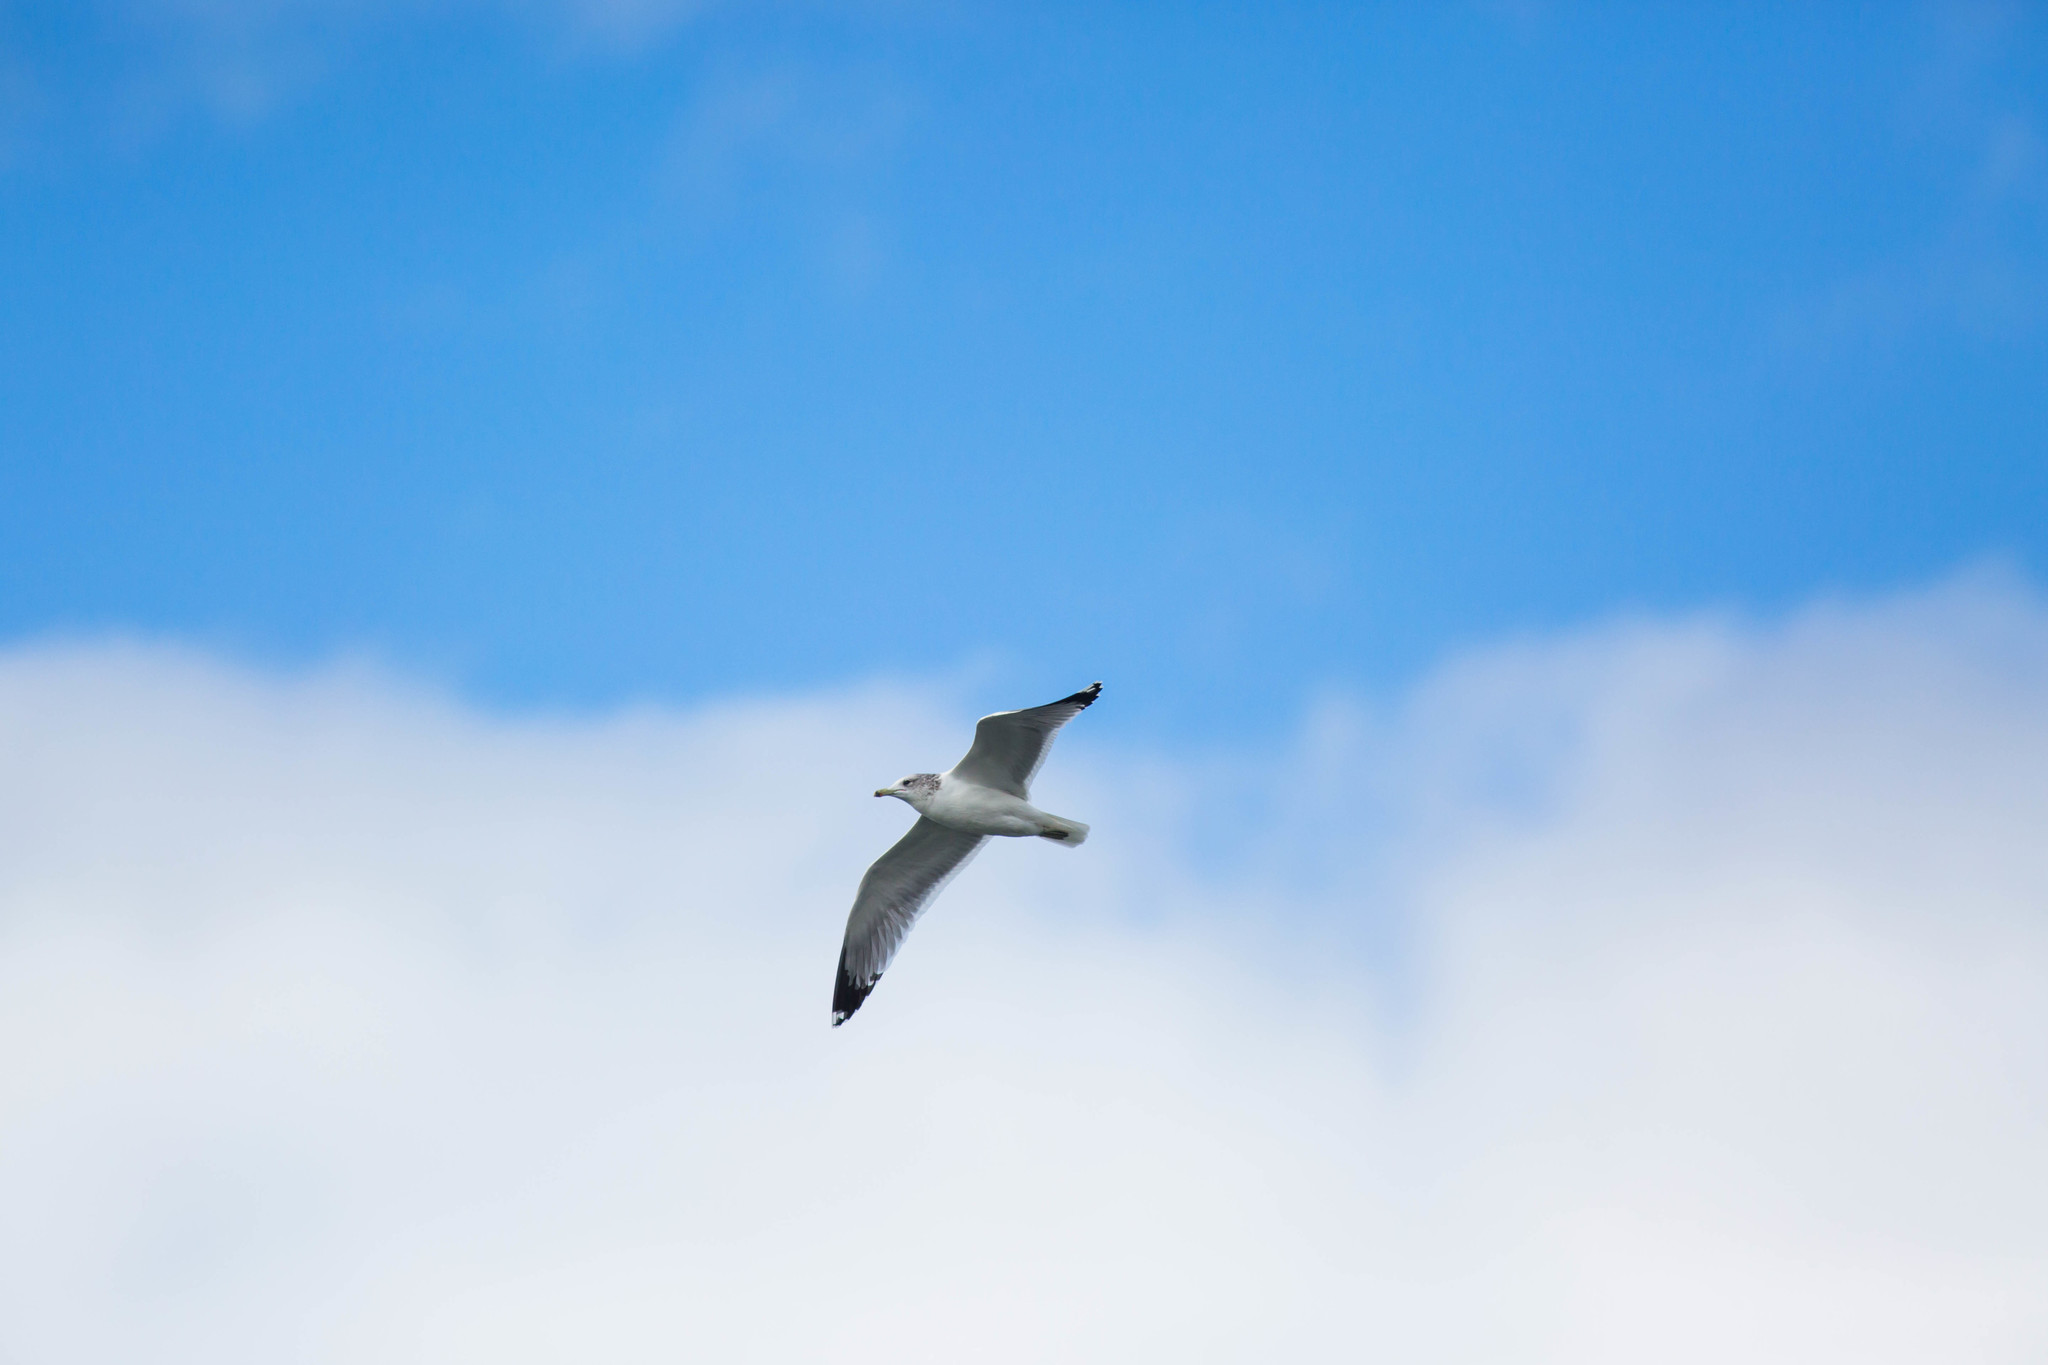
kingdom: Animalia
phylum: Chordata
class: Aves
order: Charadriiformes
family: Laridae
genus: Larus
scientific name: Larus californicus
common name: California gull
